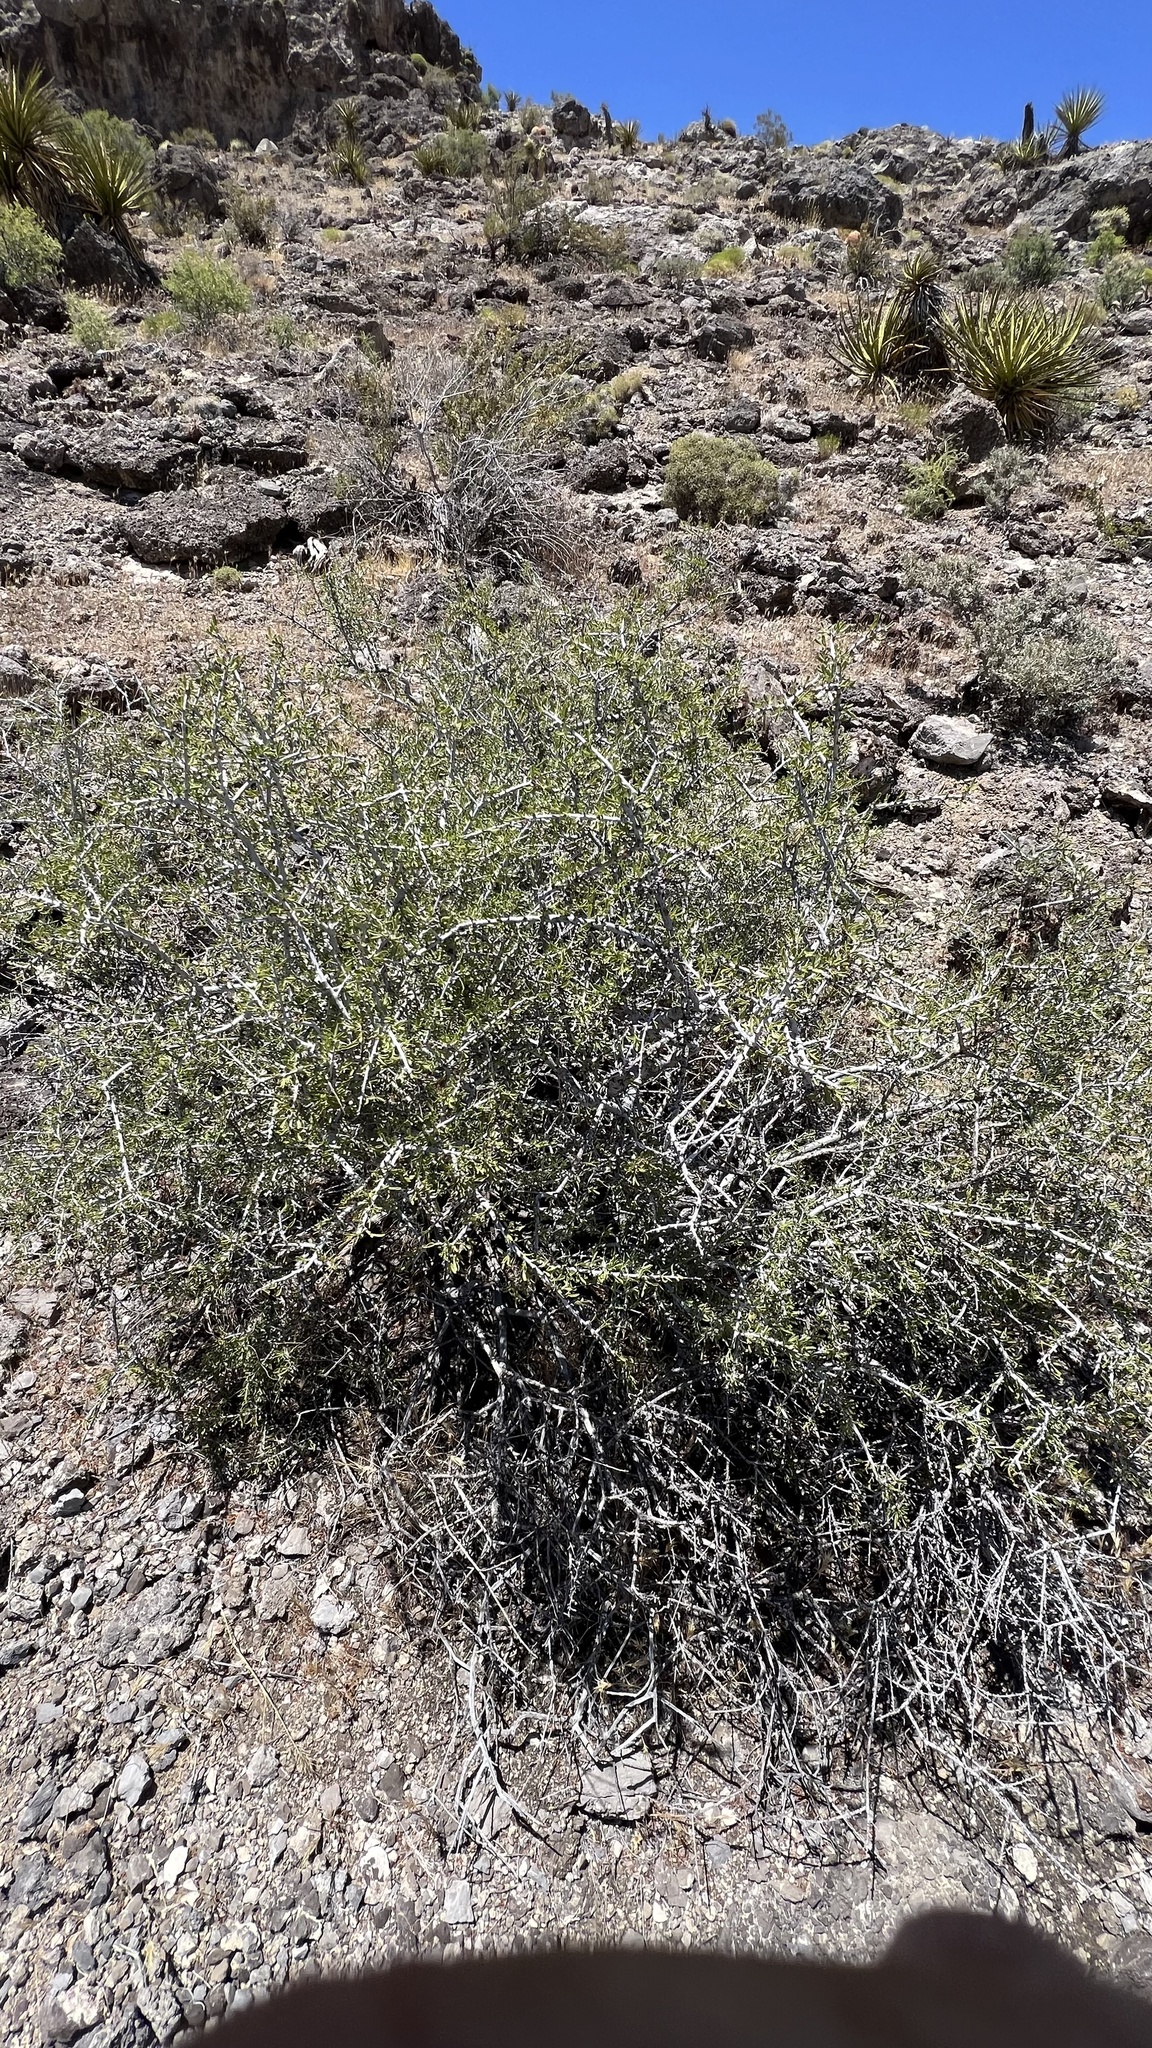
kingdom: Plantae
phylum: Tracheophyta
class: Magnoliopsida
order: Rosales
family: Rosaceae
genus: Prunus
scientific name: Prunus fasciculata
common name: Desert almond
